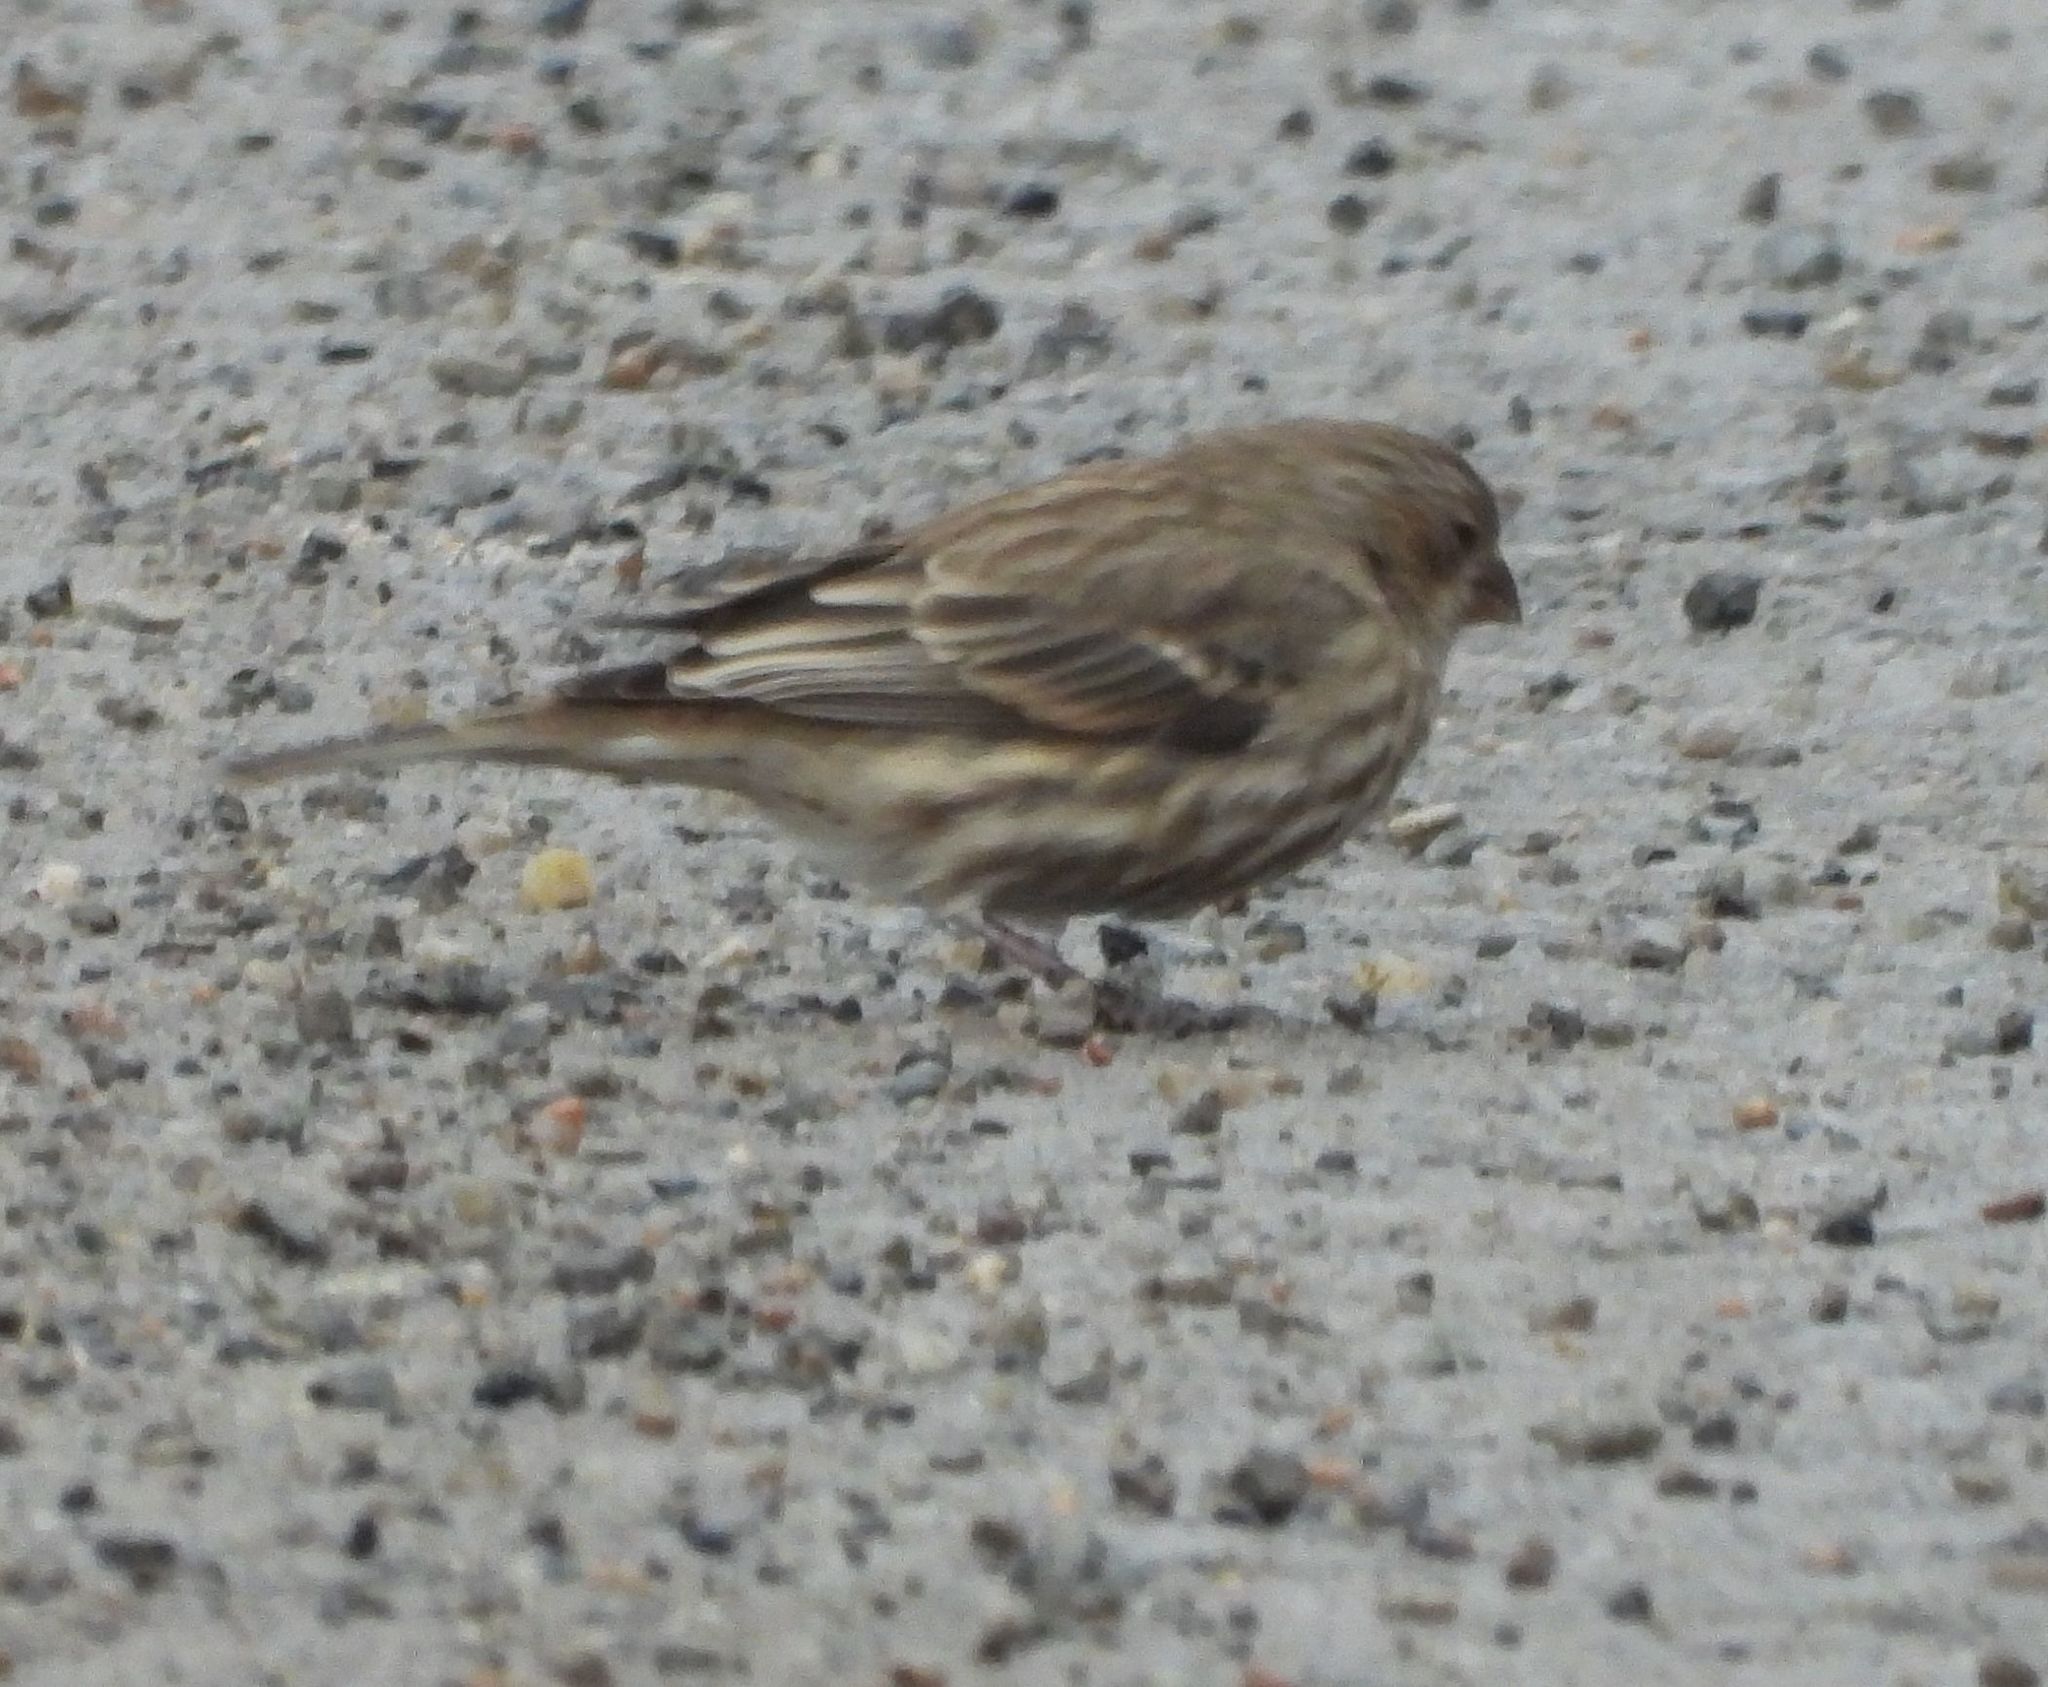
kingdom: Animalia
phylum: Chordata
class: Aves
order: Passeriformes
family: Fringillidae
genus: Haemorhous
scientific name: Haemorhous mexicanus
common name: House finch
